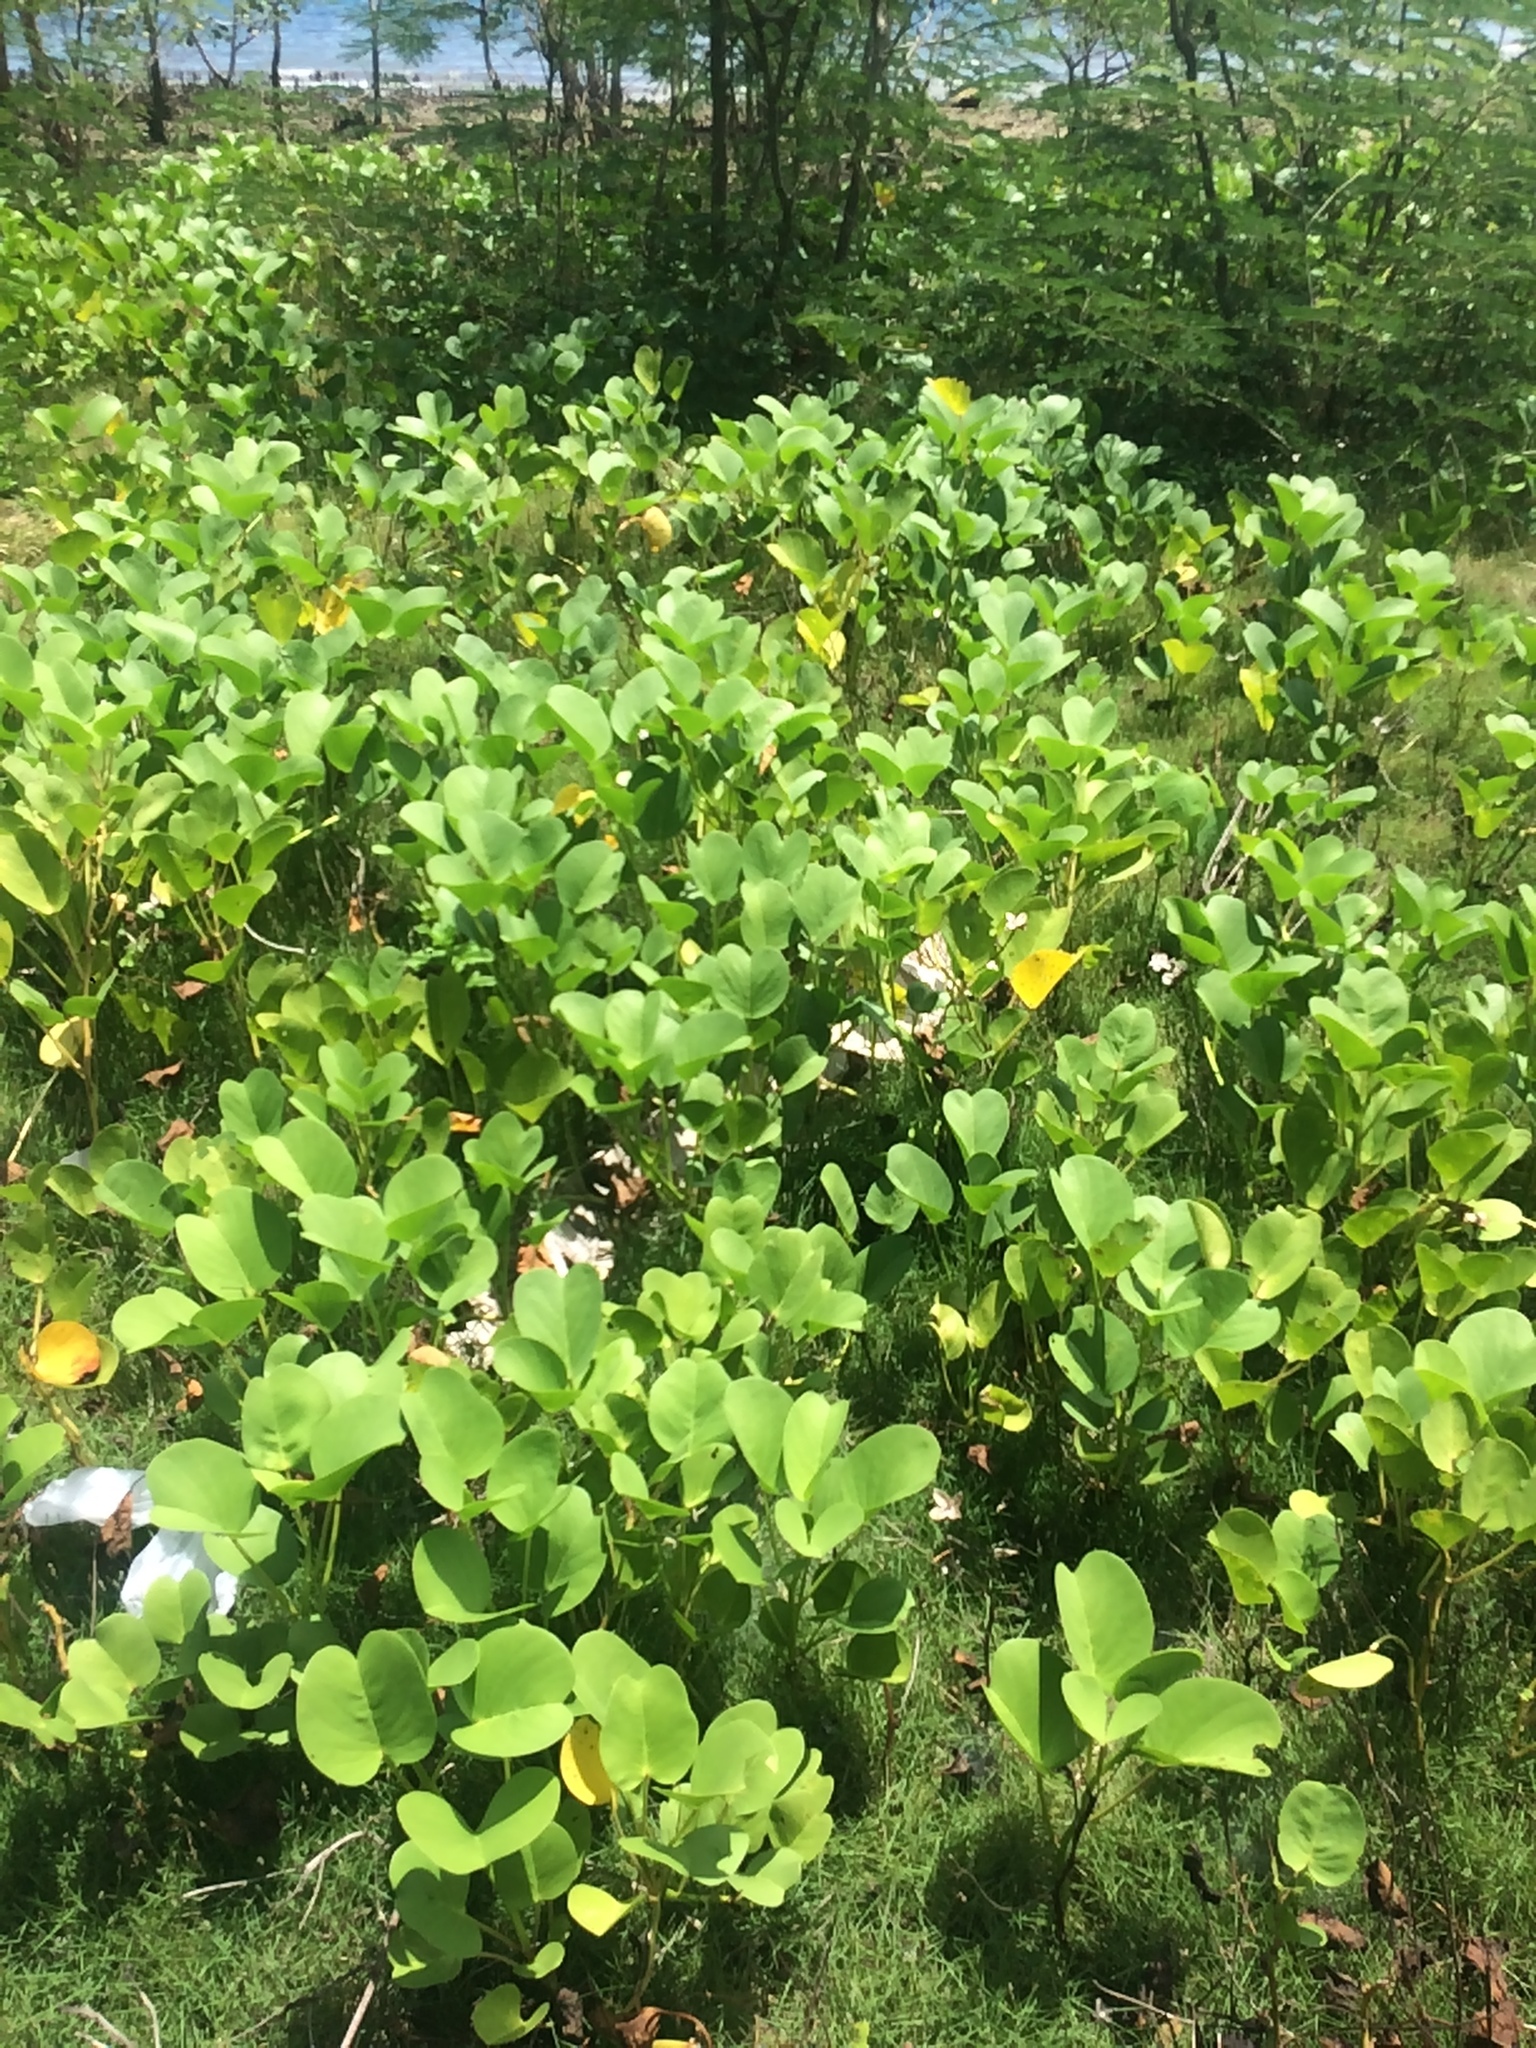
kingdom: Plantae
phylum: Tracheophyta
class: Magnoliopsida
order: Solanales
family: Convolvulaceae
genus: Ipomoea
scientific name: Ipomoea pes-caprae
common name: Beach morning glory
